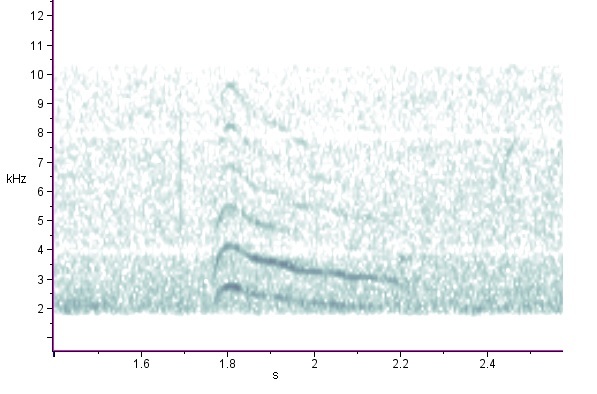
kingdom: Animalia
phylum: Chordata
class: Aves
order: Piciformes
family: Picidae
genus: Sphyrapicus
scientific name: Sphyrapicus varius
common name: Yellow-bellied sapsucker
